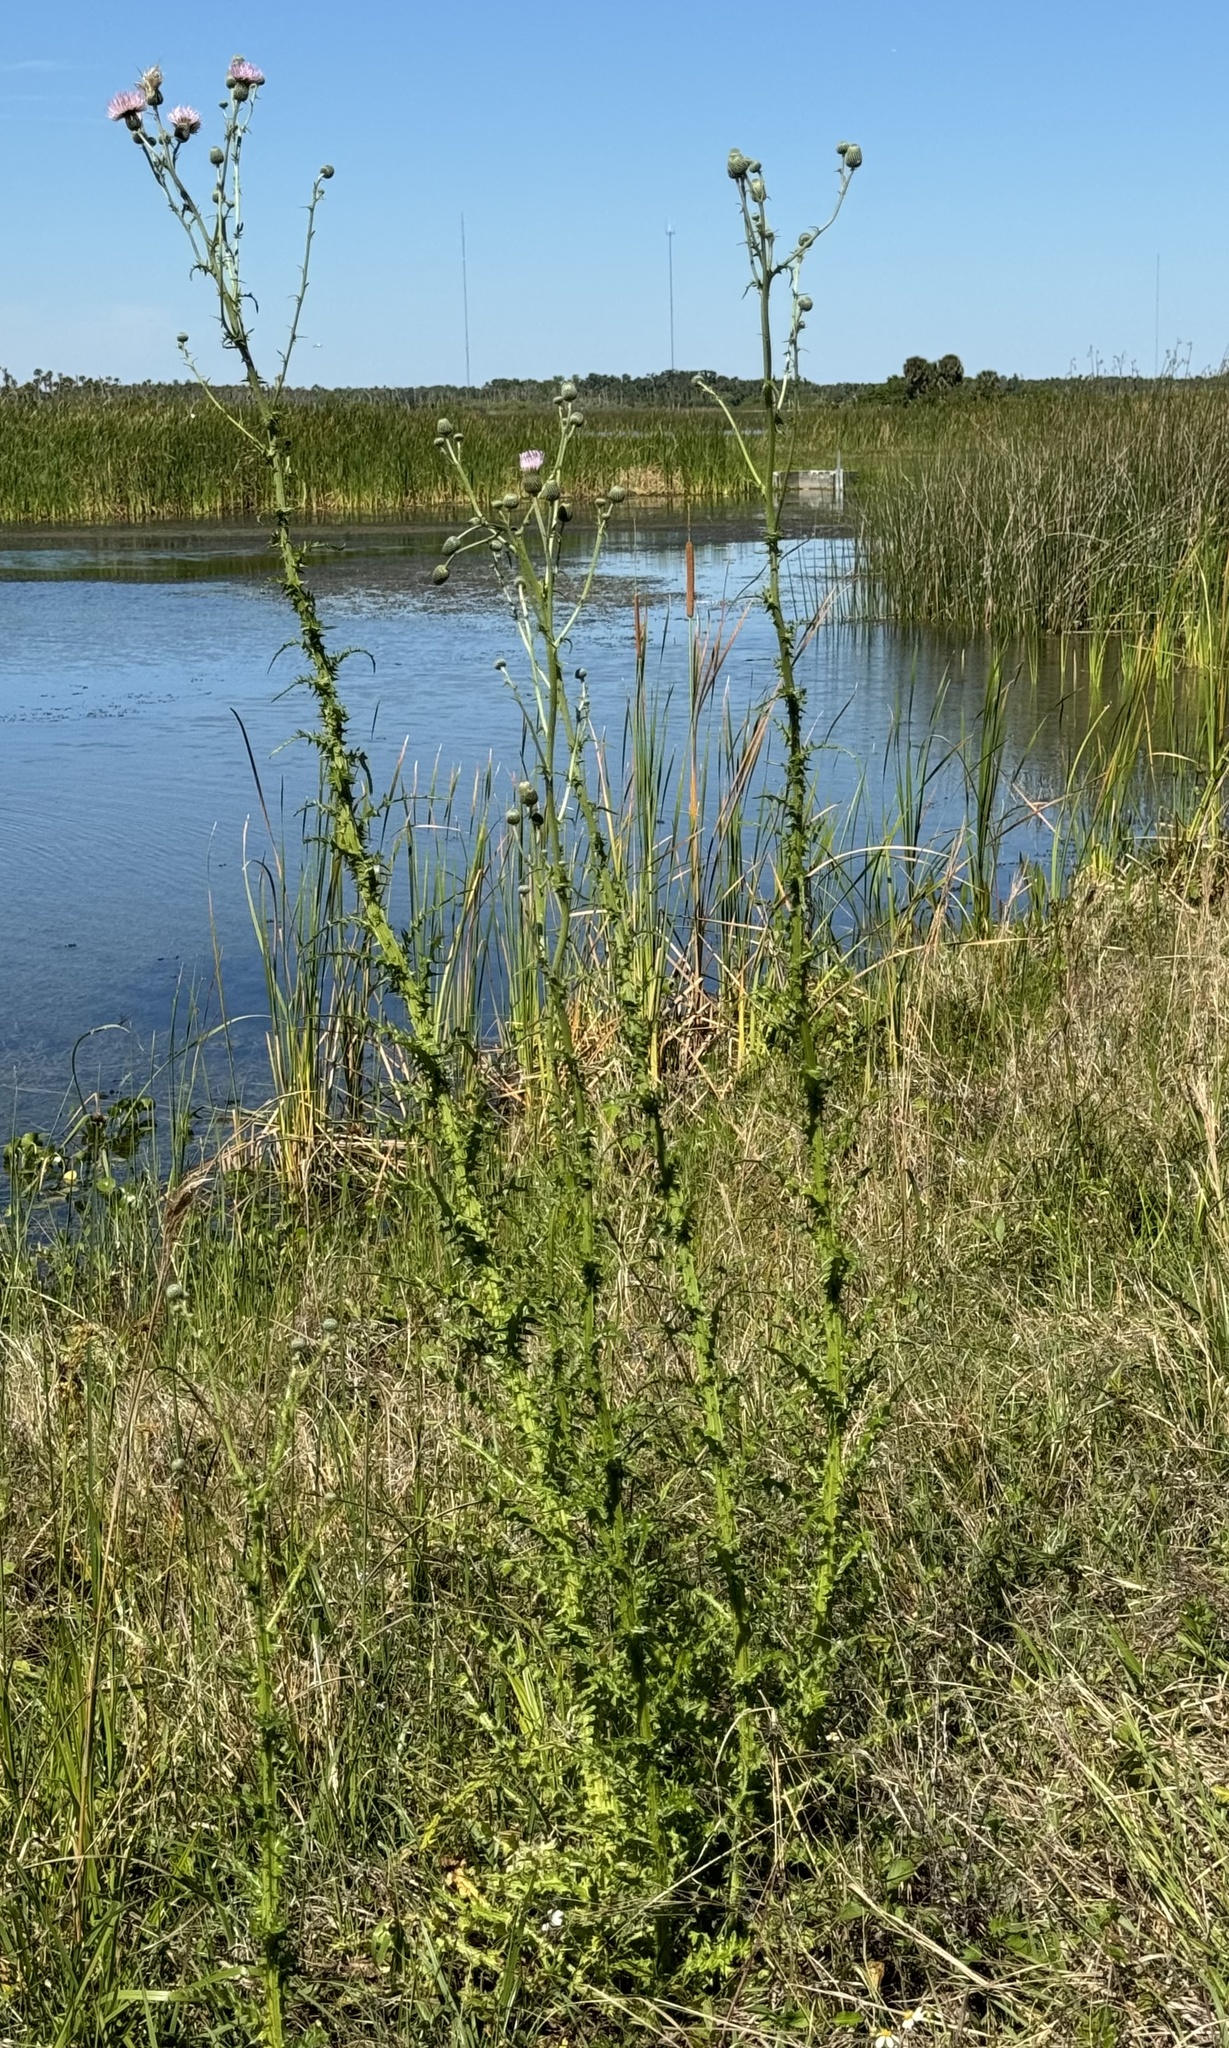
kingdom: Plantae
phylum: Tracheophyta
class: Magnoliopsida
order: Asterales
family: Asteraceae
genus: Cirsium
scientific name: Cirsium nuttalii
